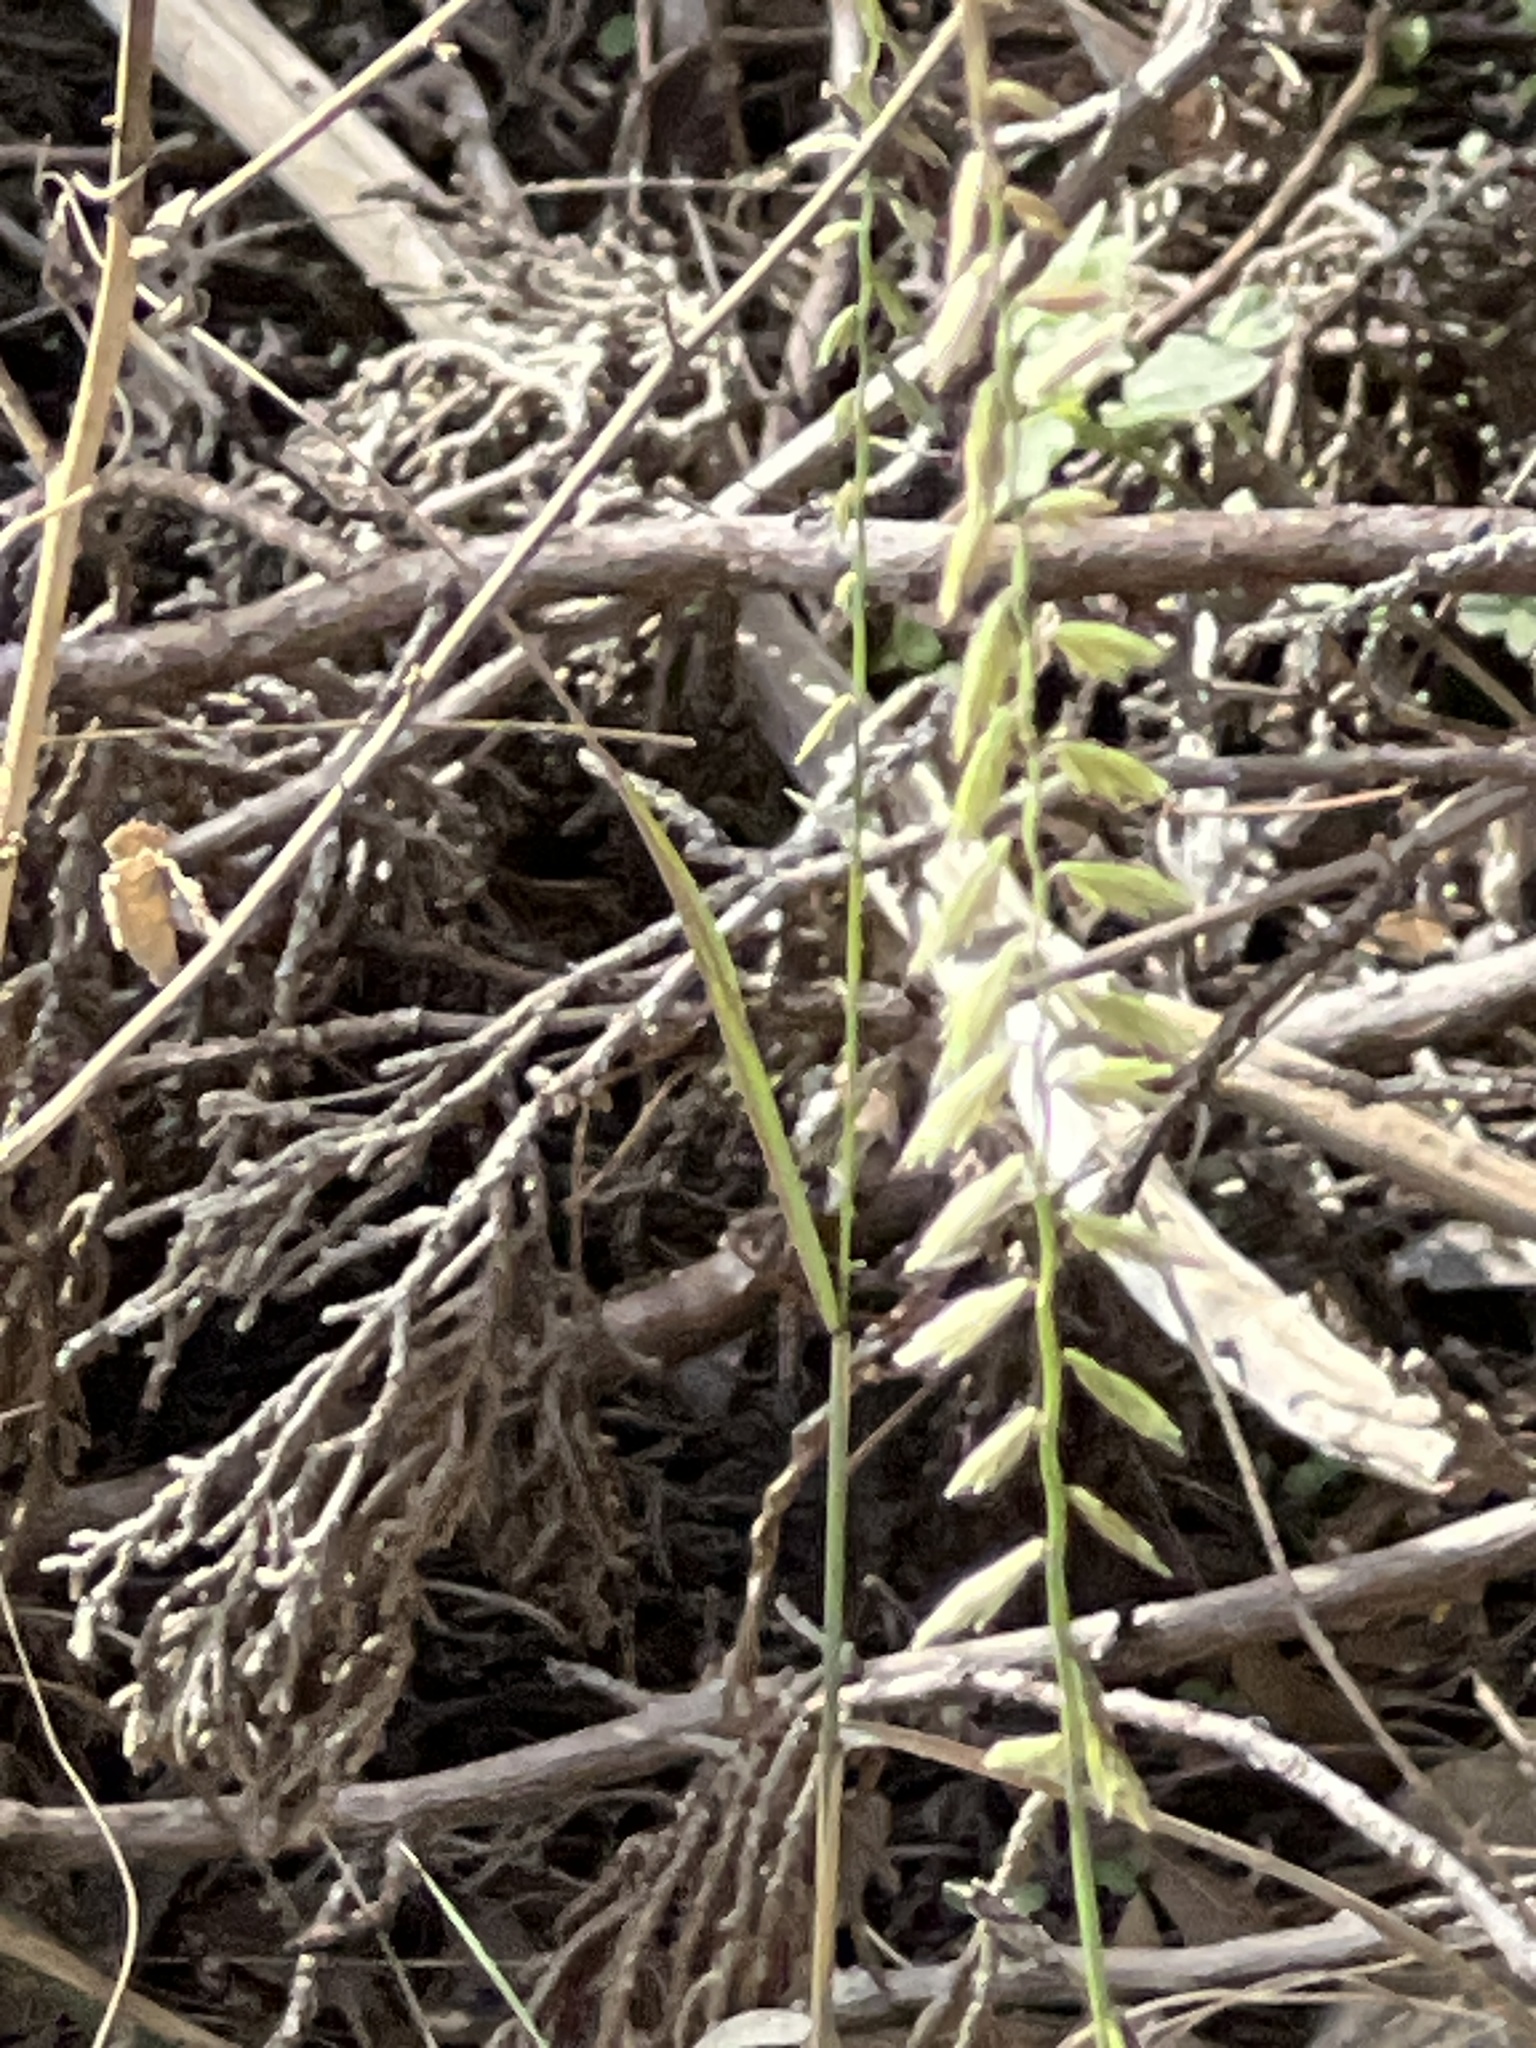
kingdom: Plantae
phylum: Tracheophyta
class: Liliopsida
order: Poales
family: Poaceae
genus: Bouteloua
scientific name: Bouteloua curtipendula
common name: Side-oats grama
